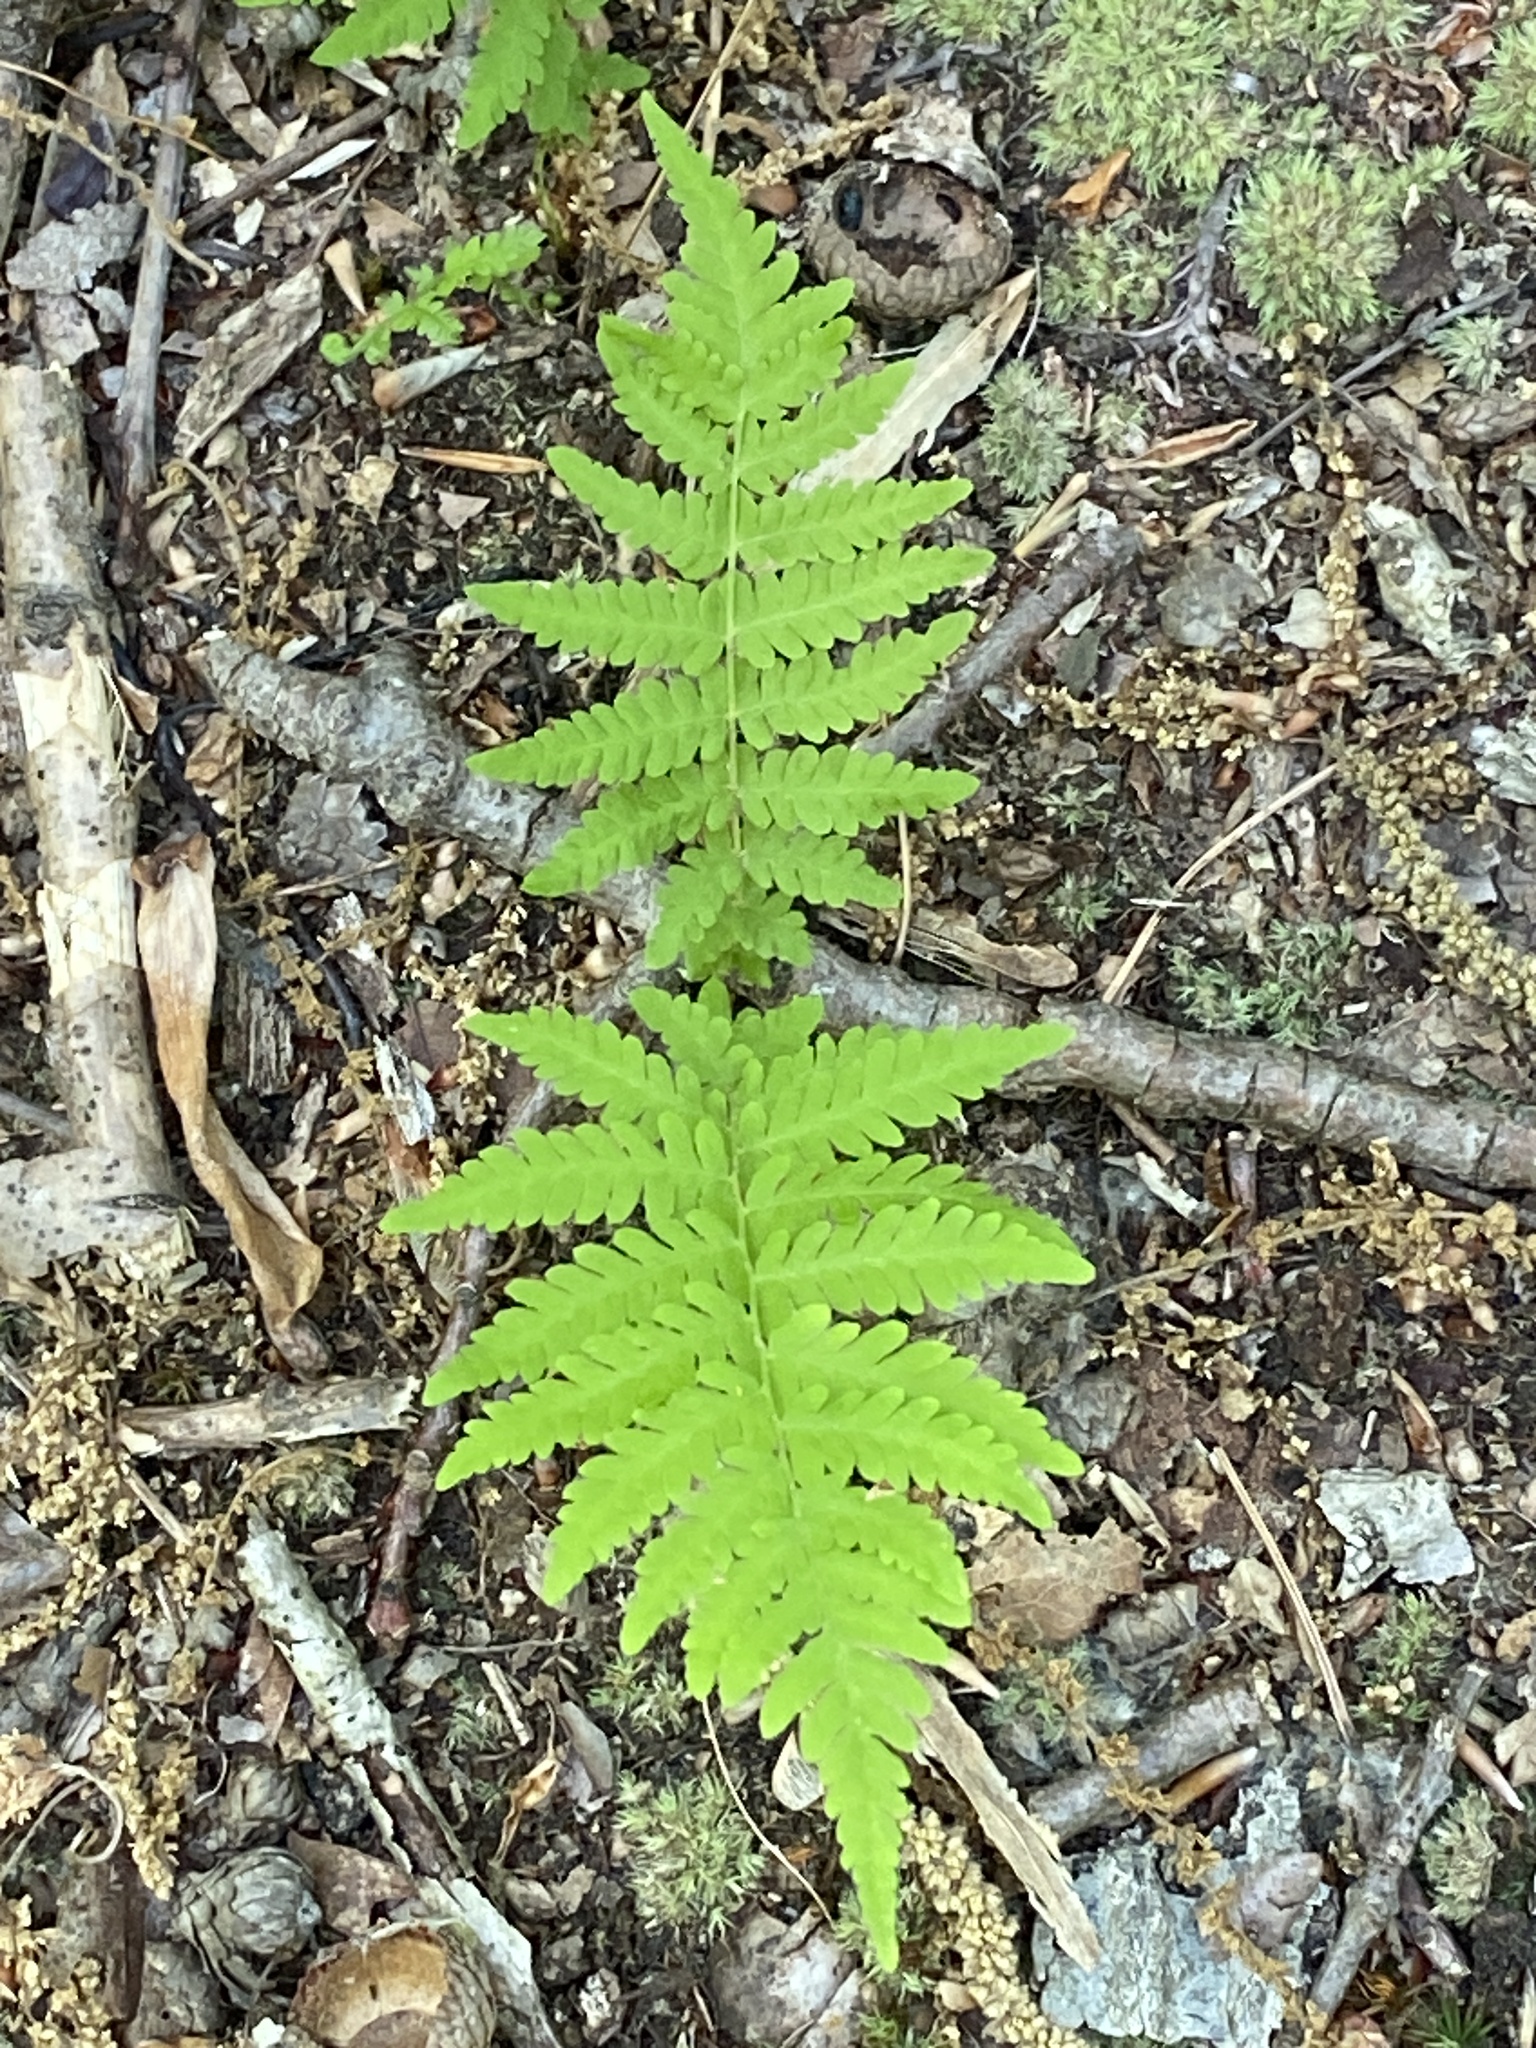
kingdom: Plantae
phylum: Tracheophyta
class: Polypodiopsida
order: Polypodiales
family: Thelypteridaceae
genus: Amauropelta
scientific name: Amauropelta noveboracensis
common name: New york fern
